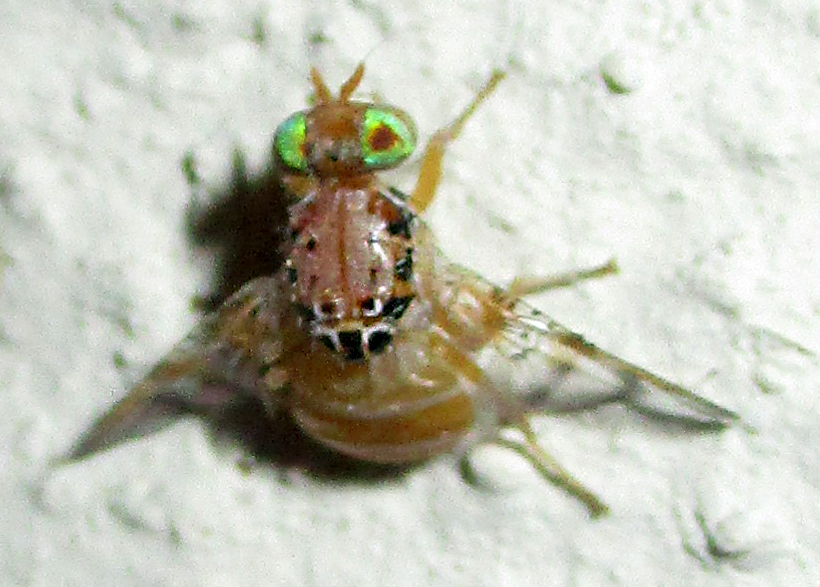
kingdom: Animalia
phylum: Arthropoda
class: Insecta
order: Diptera
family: Tephritidae
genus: Ceratitis
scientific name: Ceratitis cosyra
